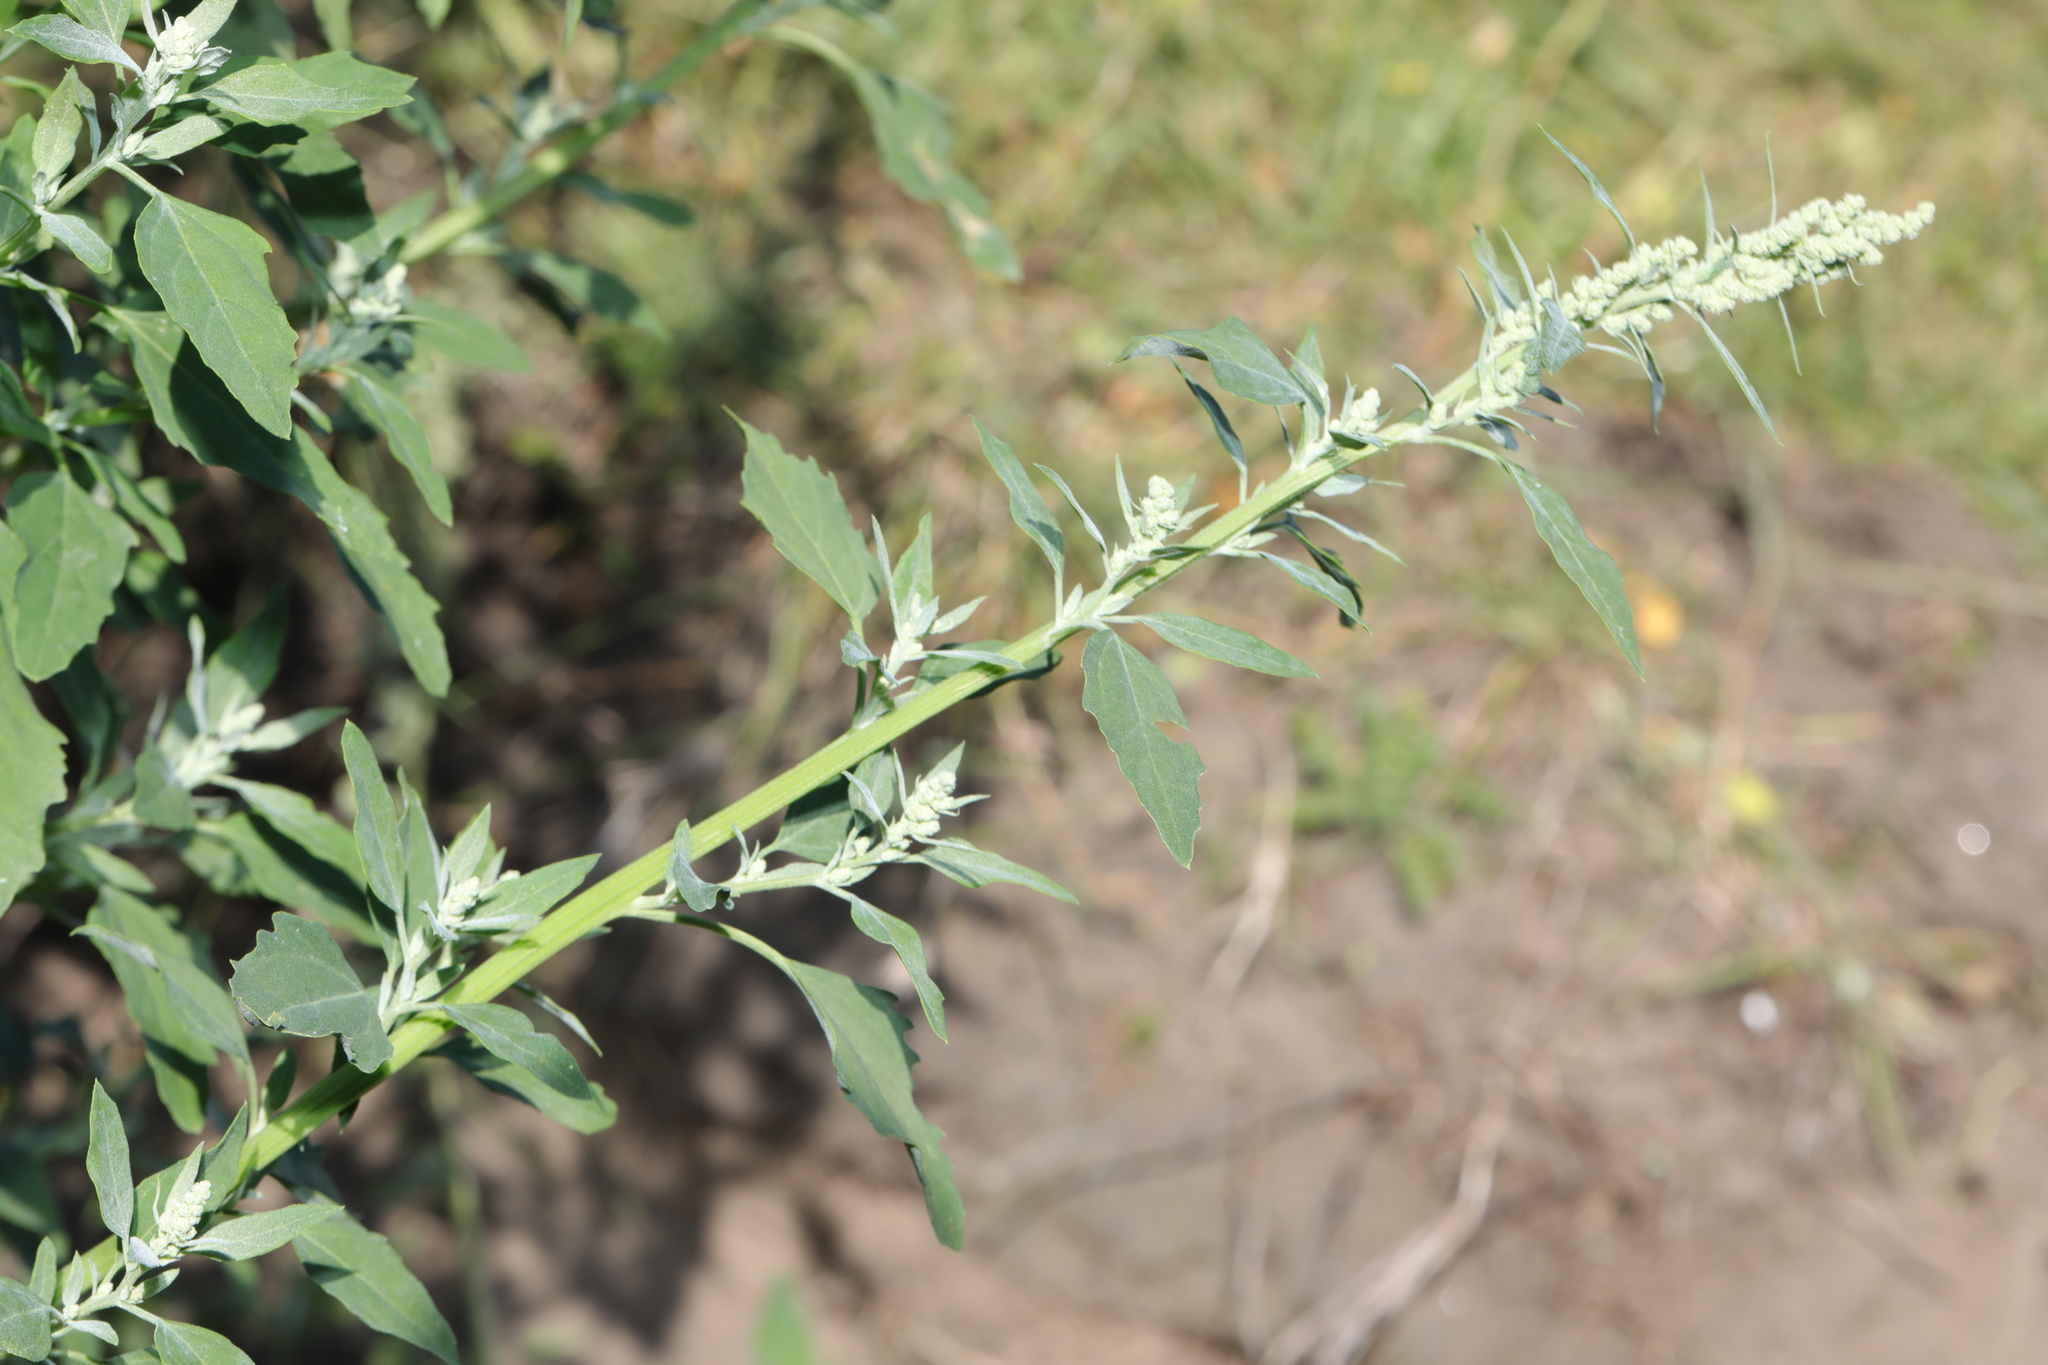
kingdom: Plantae
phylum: Tracheophyta
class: Magnoliopsida
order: Caryophyllales
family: Amaranthaceae
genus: Chenopodium
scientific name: Chenopodium album
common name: Fat-hen
